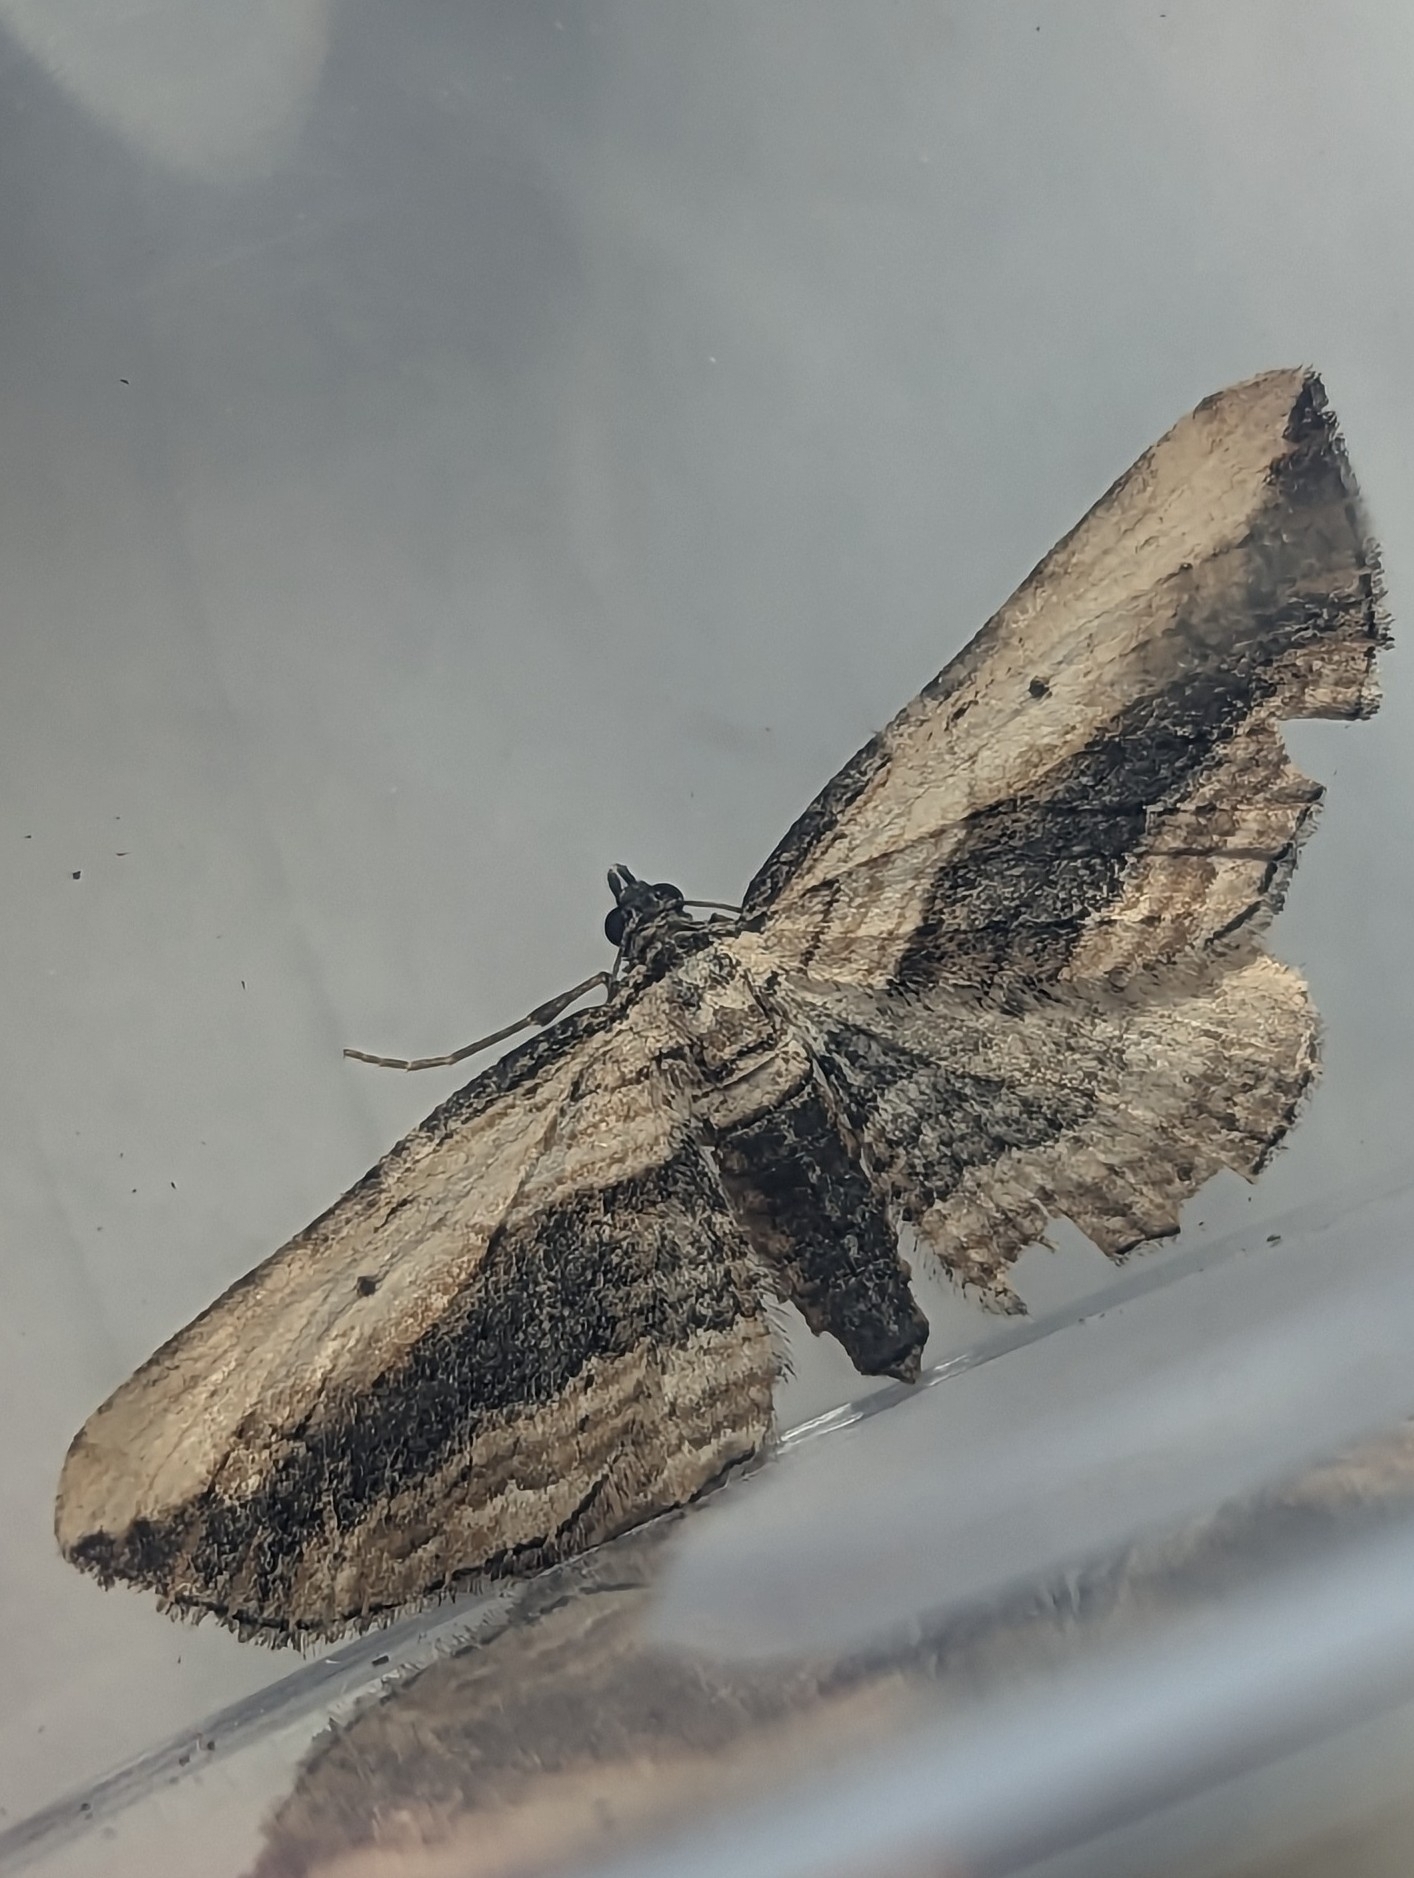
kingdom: Animalia
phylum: Arthropoda
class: Insecta
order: Lepidoptera
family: Geometridae
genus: Horisme
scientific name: Horisme vitalbata
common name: Small waved umber
